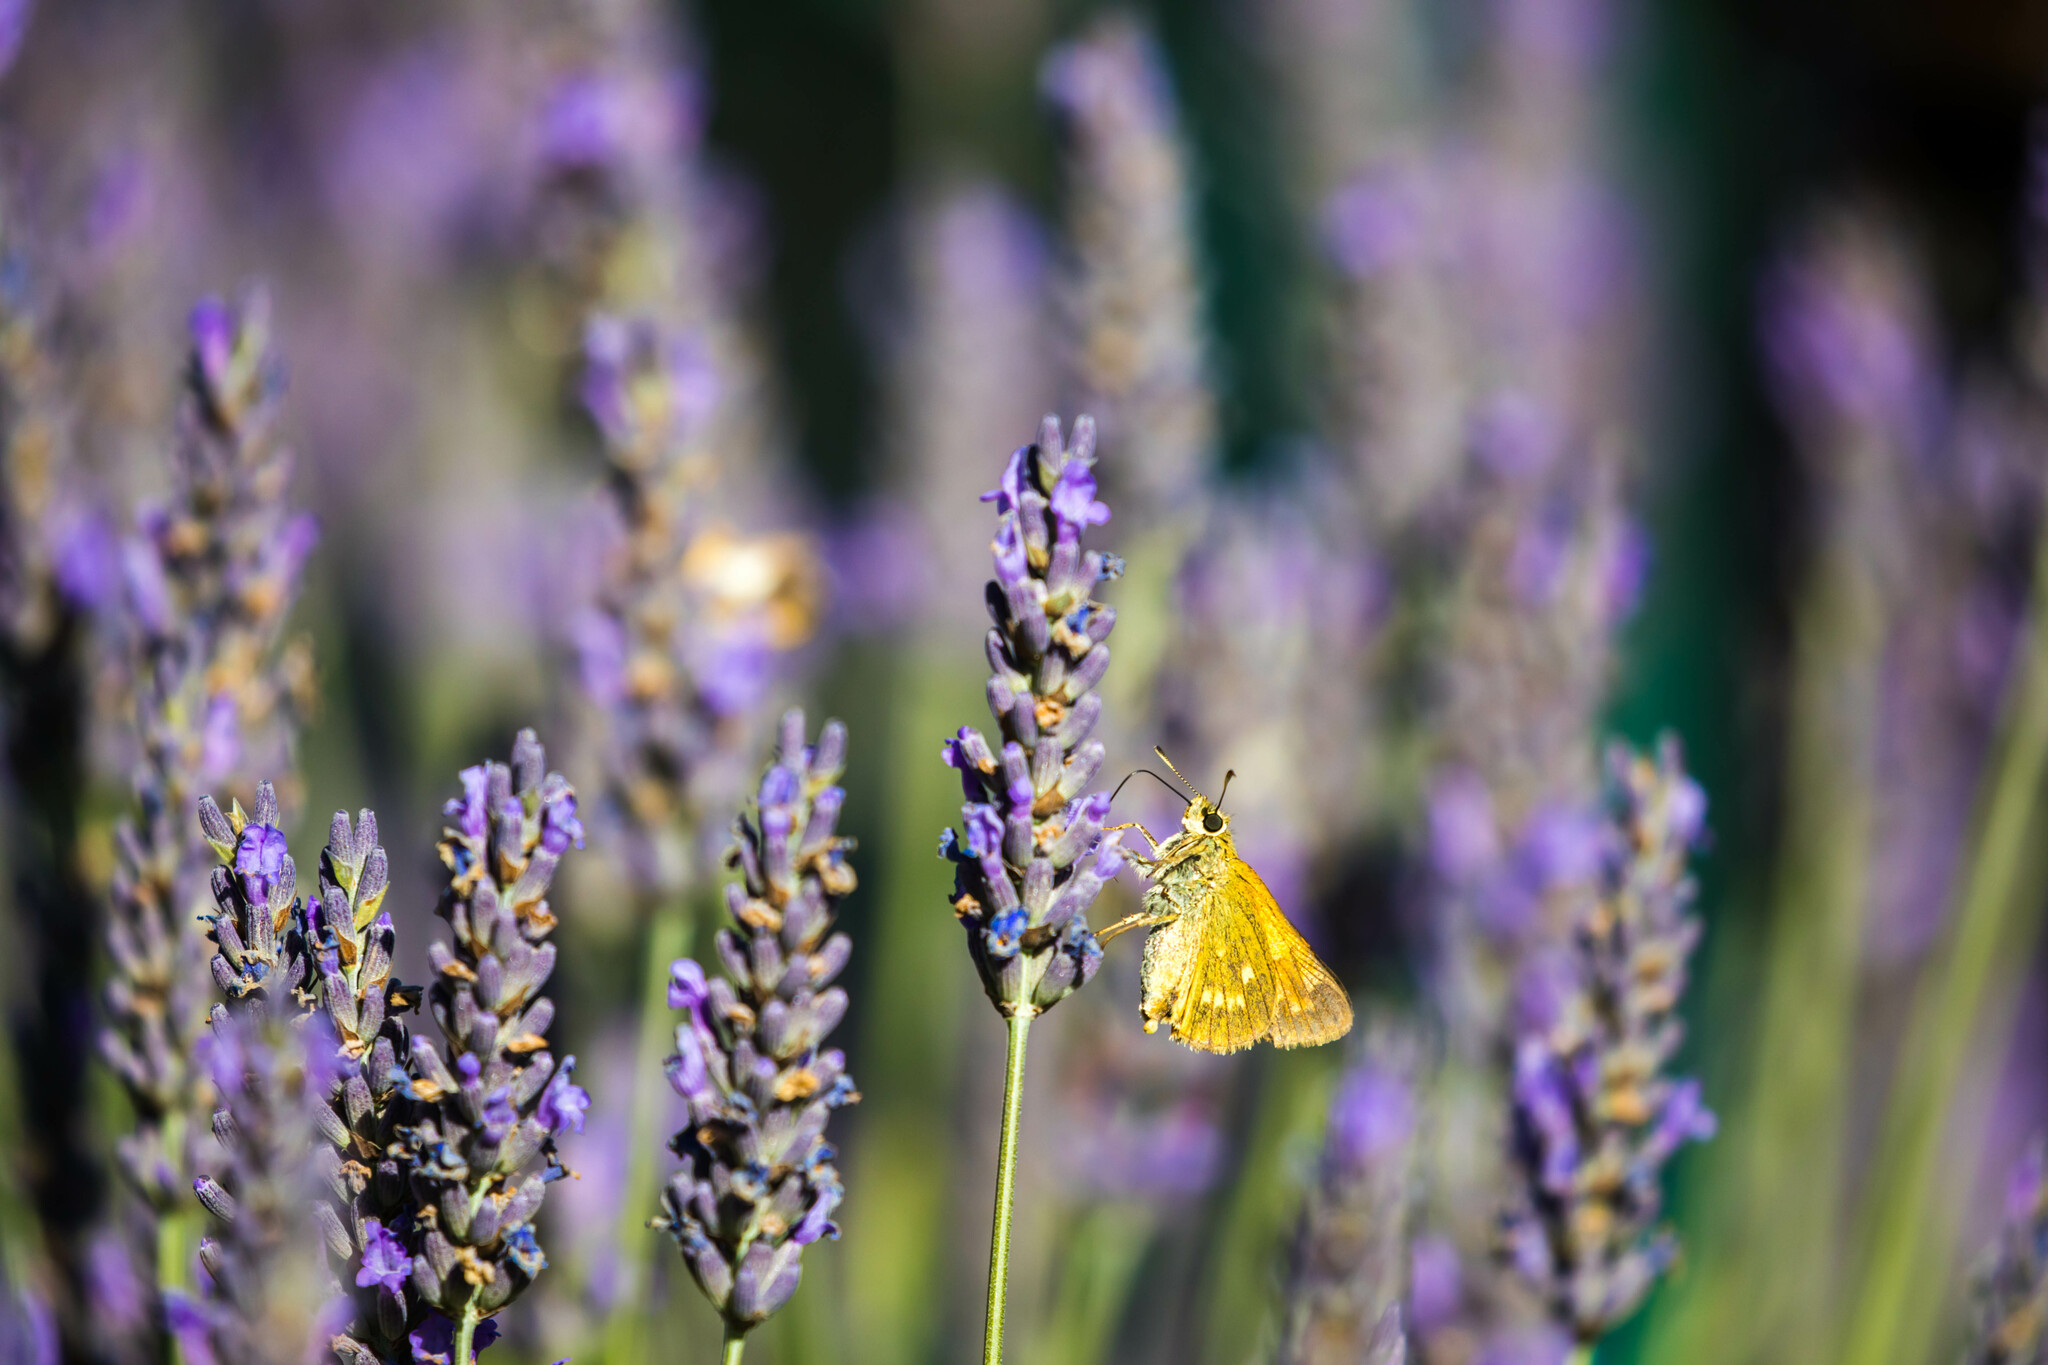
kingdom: Animalia
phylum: Arthropoda
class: Insecta
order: Lepidoptera
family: Hesperiidae
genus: Ochlodes
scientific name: Ochlodes venata
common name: Large skipper
